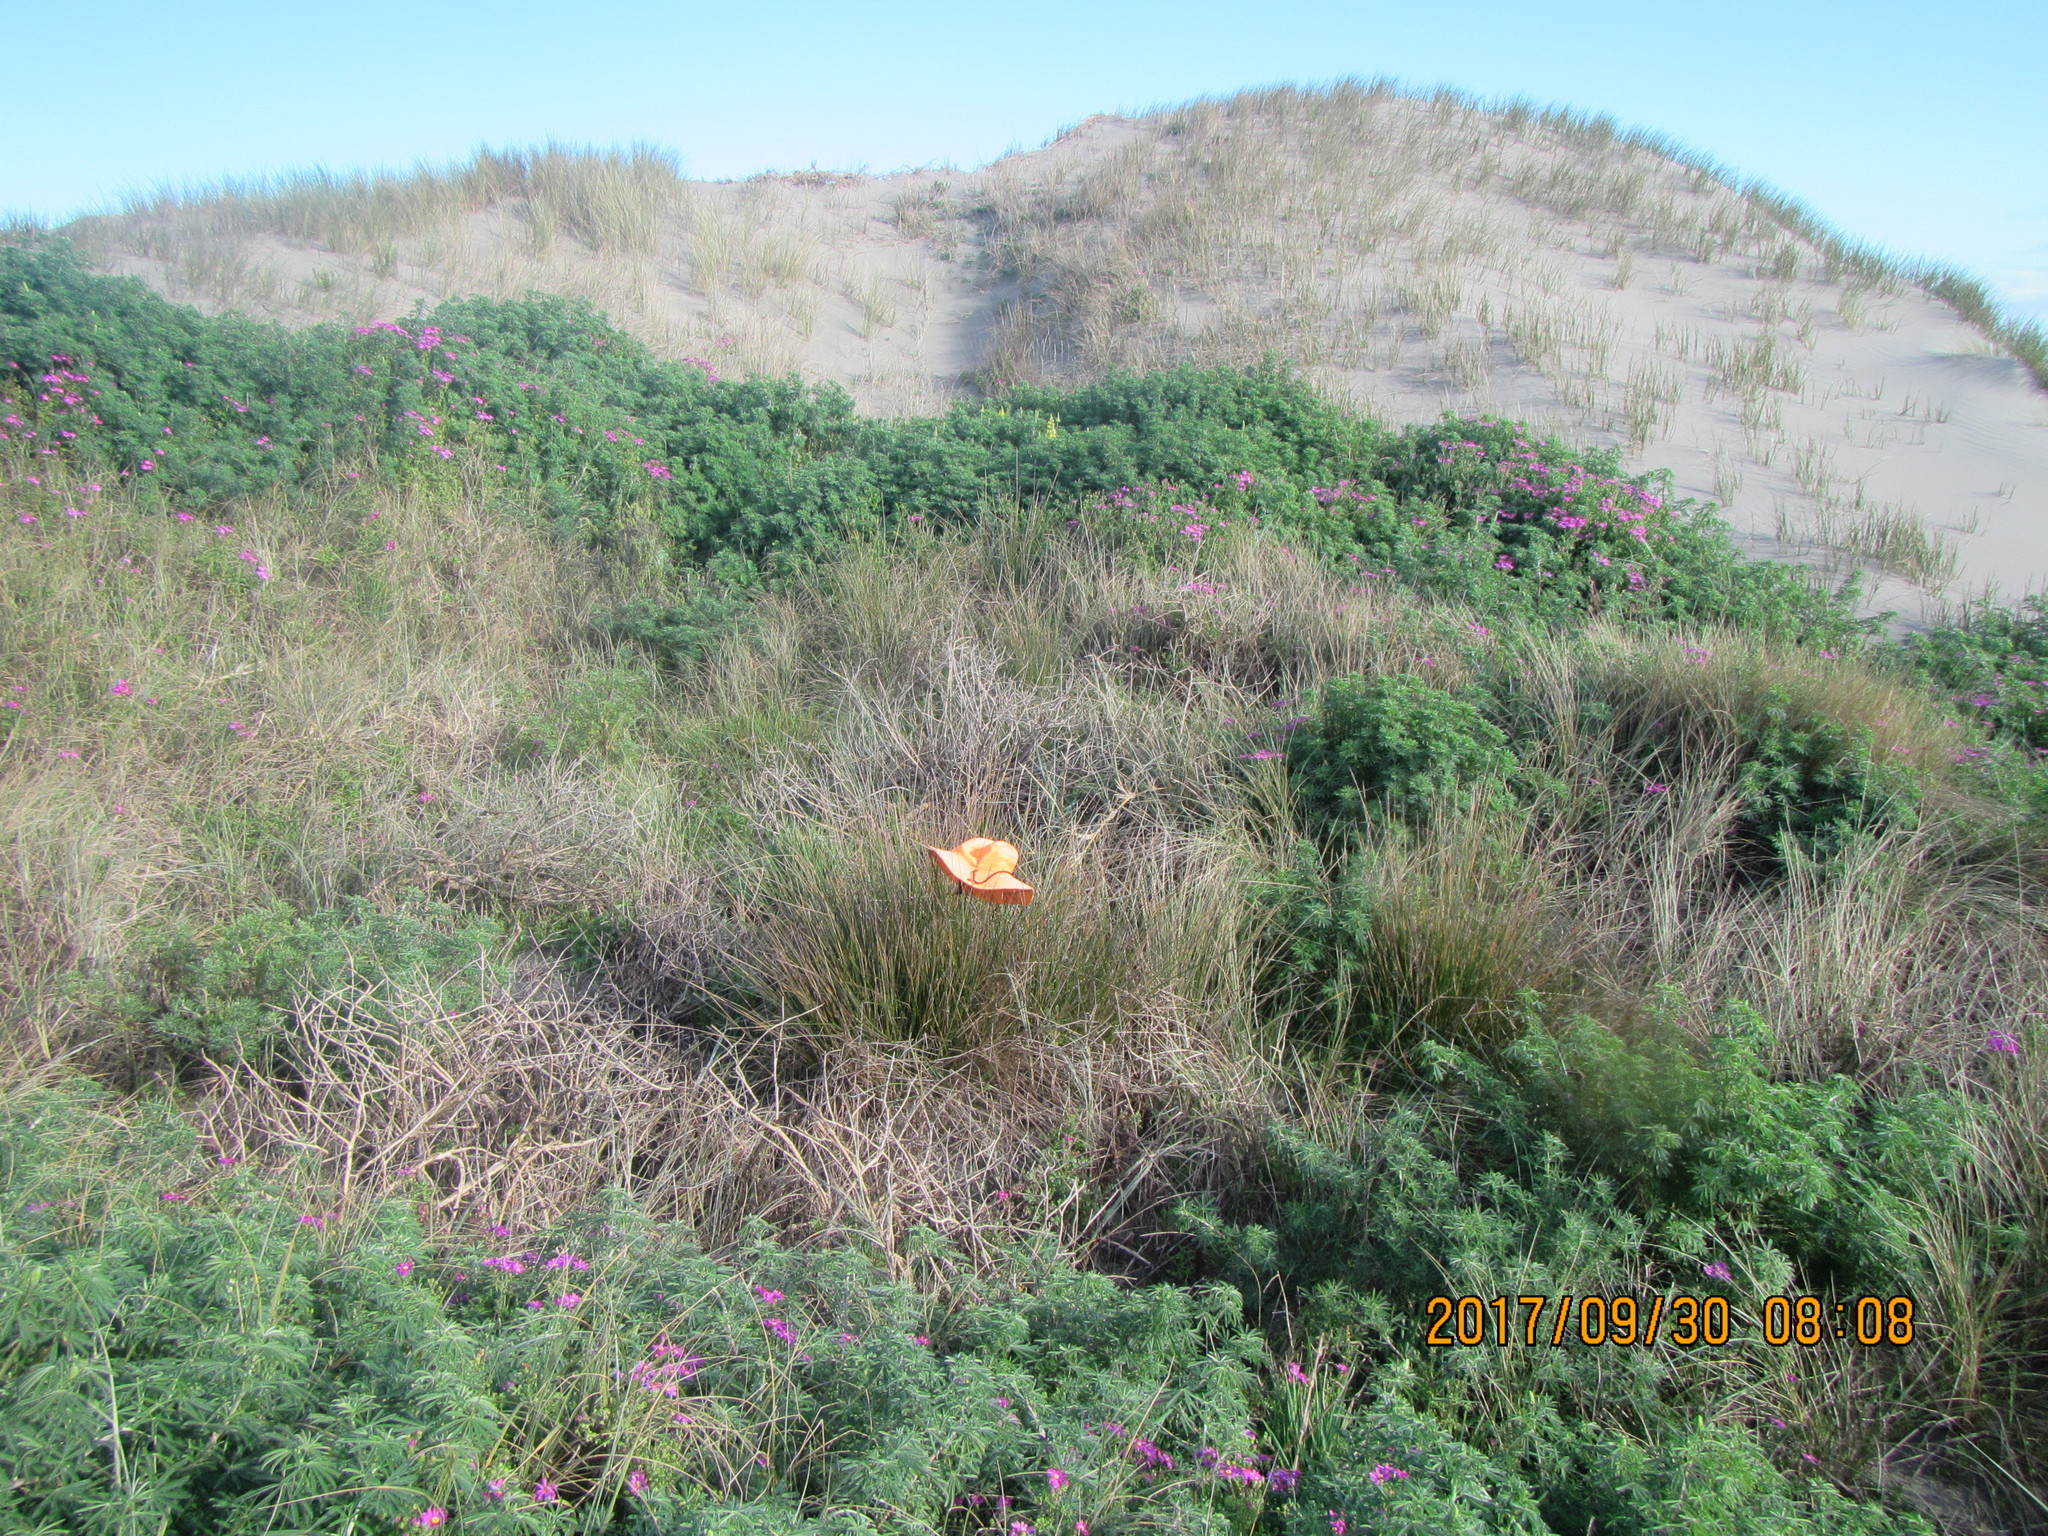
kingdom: Plantae
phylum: Tracheophyta
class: Liliopsida
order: Poales
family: Cyperaceae
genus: Ficinia
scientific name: Ficinia nodosa
